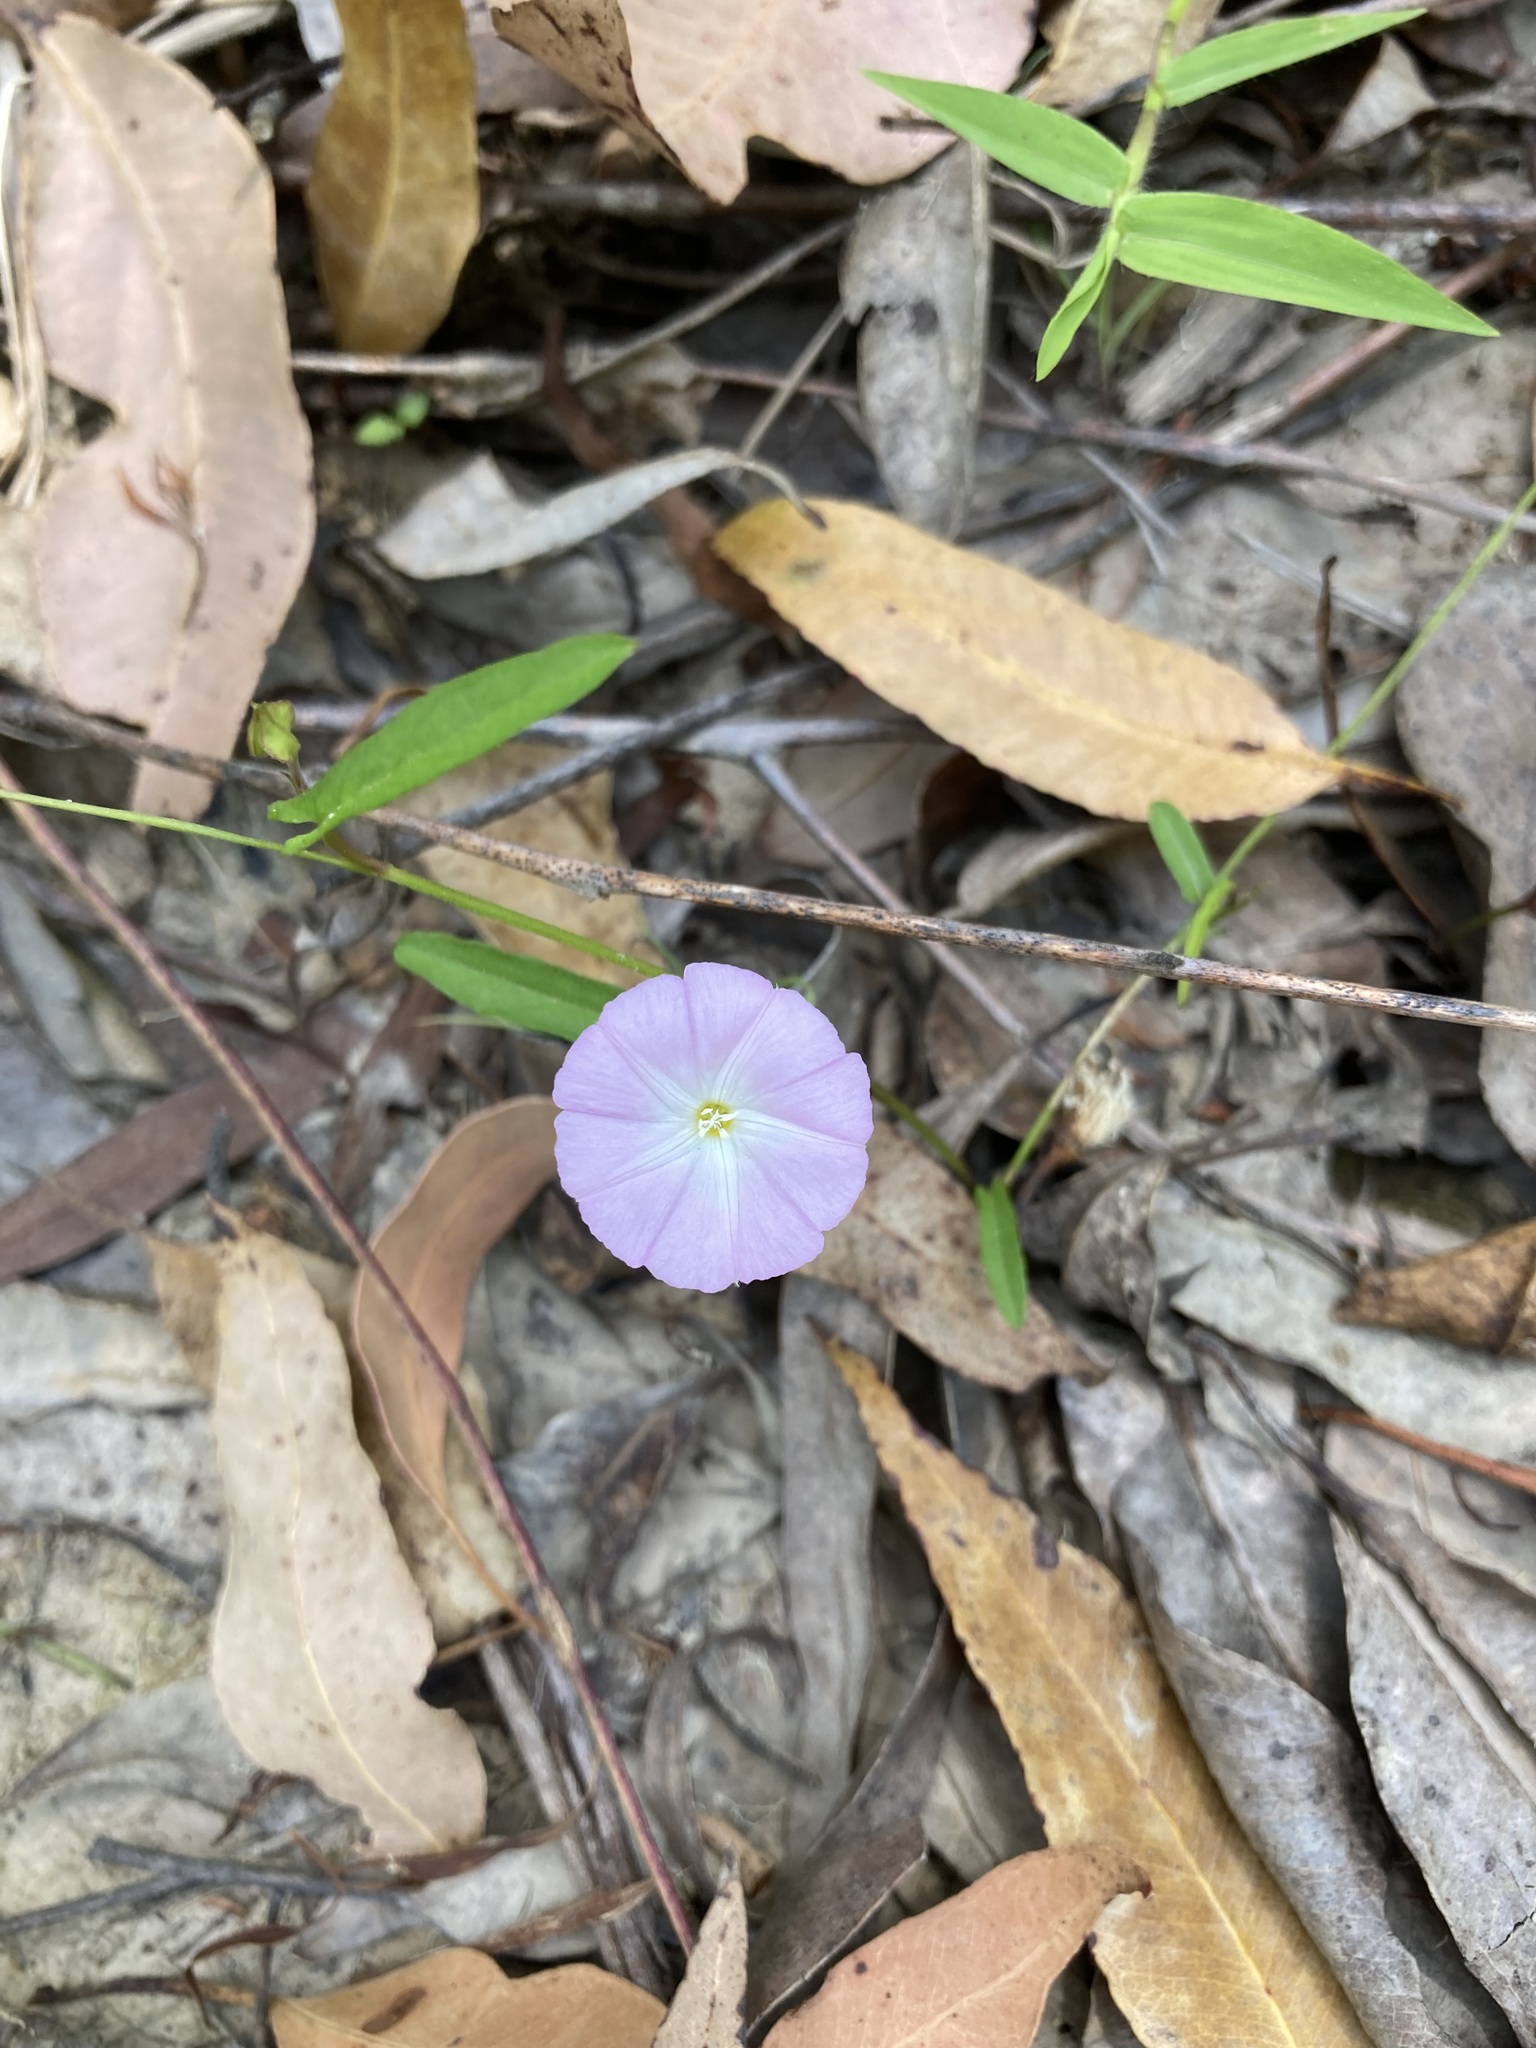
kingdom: Plantae
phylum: Tracheophyta
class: Magnoliopsida
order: Solanales
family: Convolvulaceae
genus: Polymeria
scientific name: Polymeria calycina
